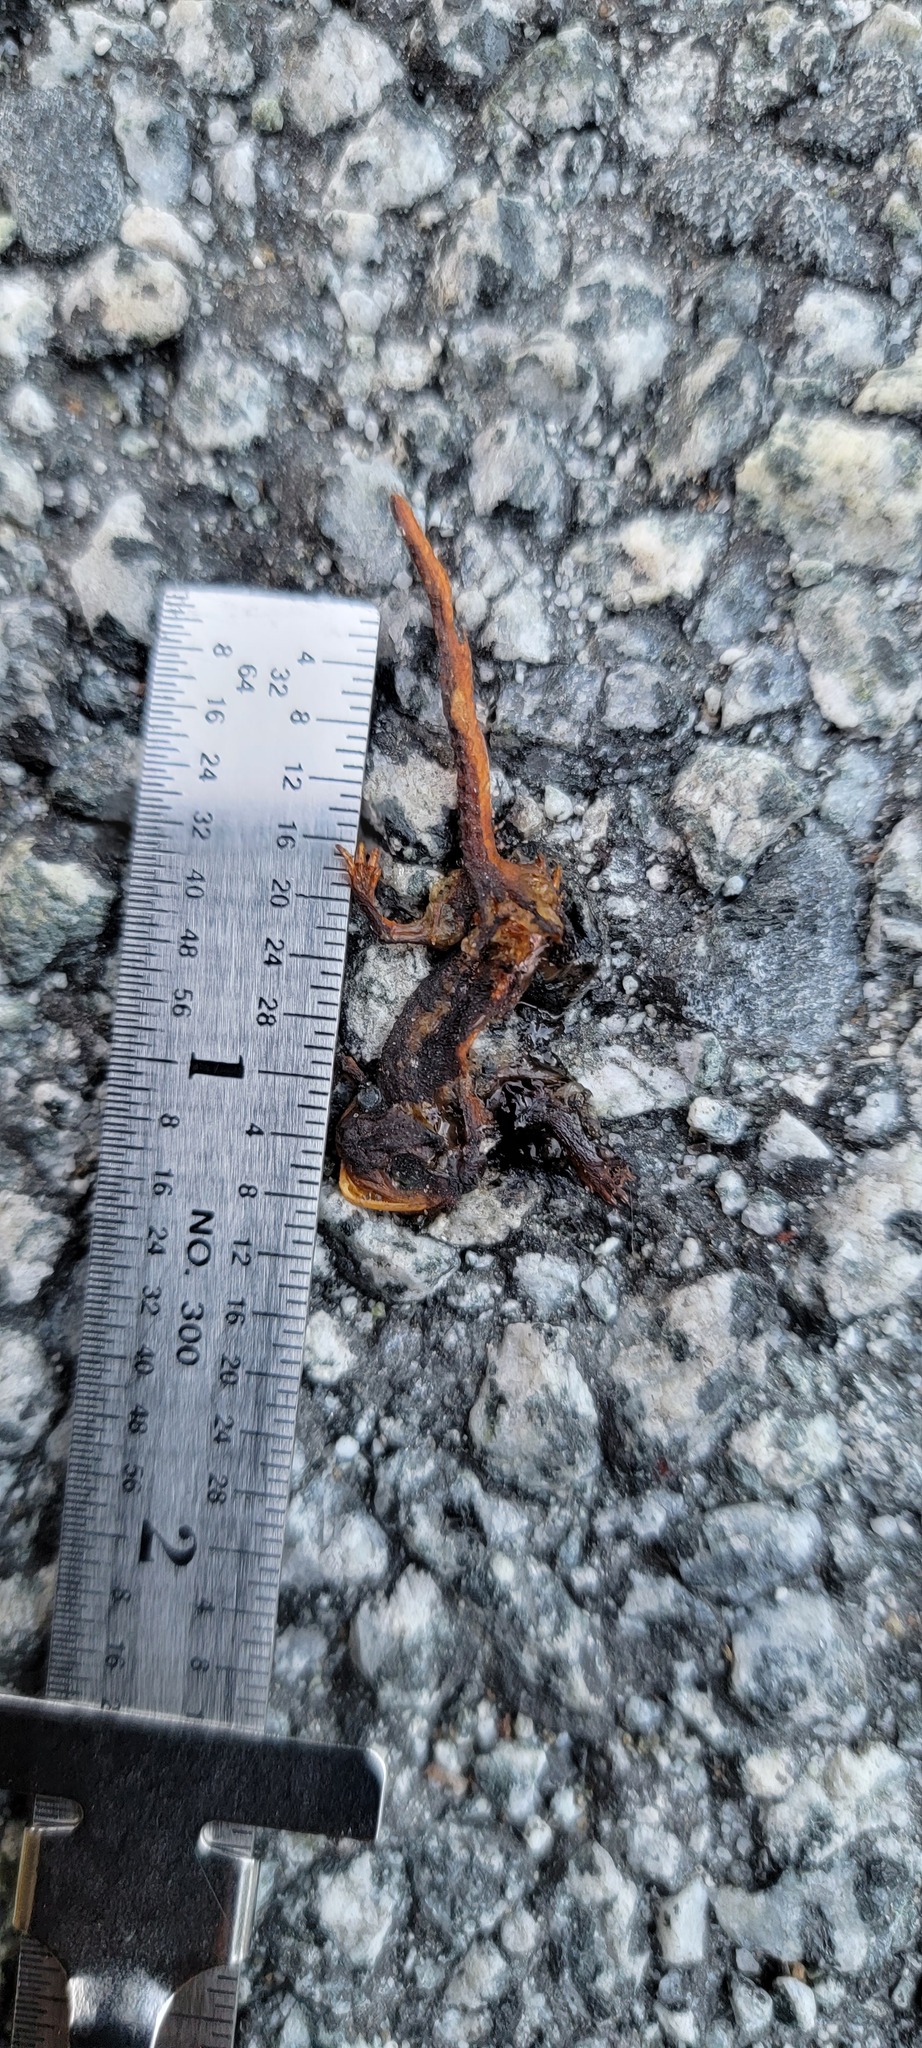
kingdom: Animalia
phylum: Chordata
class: Amphibia
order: Caudata
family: Salamandridae
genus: Taricha
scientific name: Taricha
